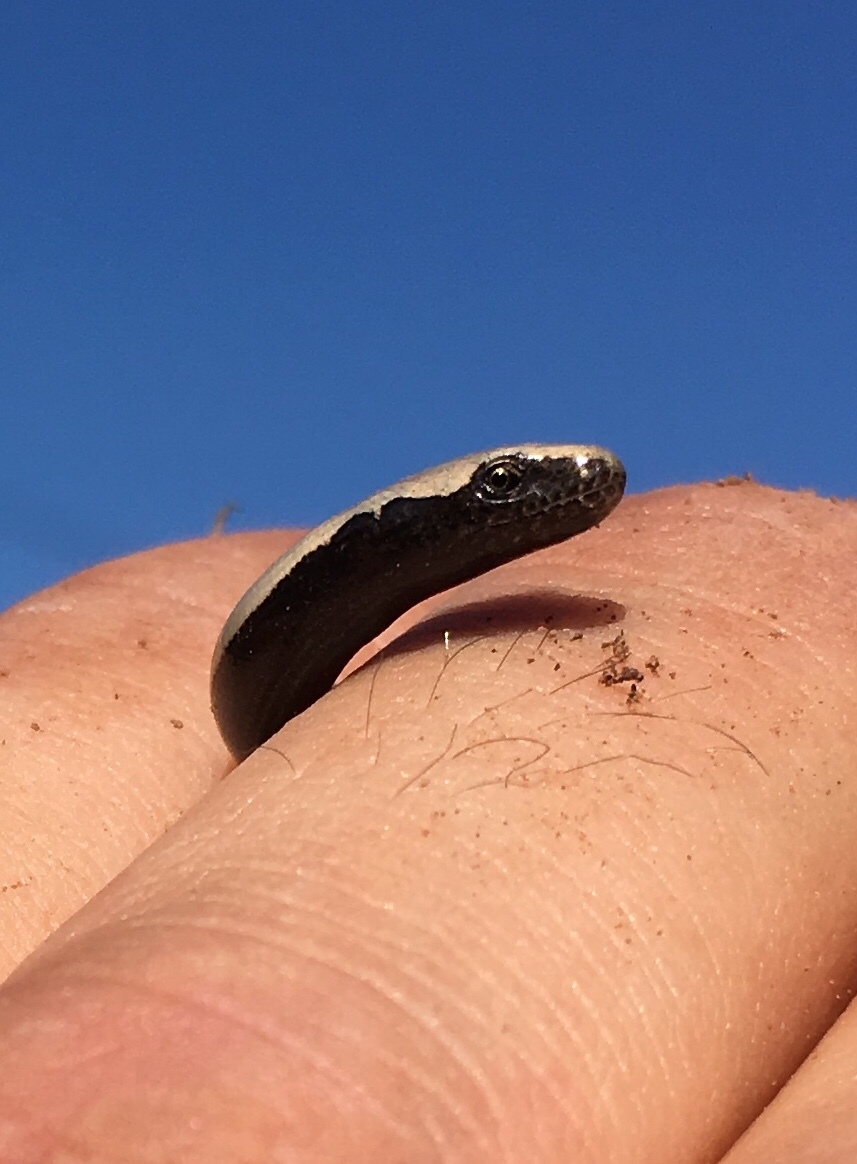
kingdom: Animalia
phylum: Chordata
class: Squamata
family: Anguidae
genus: Anguis
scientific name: Anguis fragilis
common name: Slow worm
